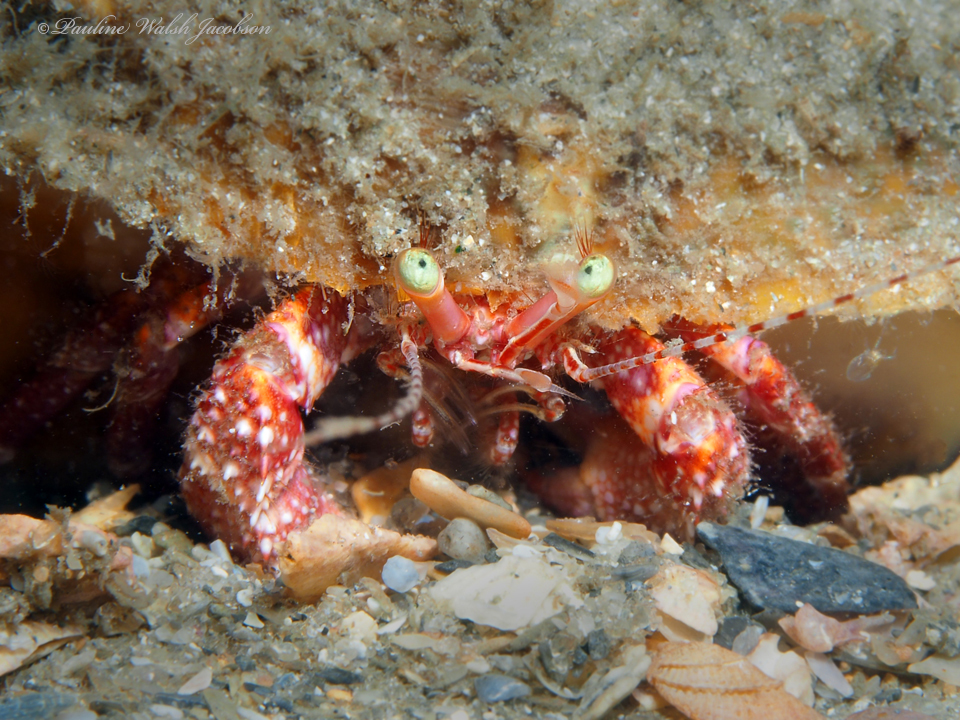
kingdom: Animalia
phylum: Arthropoda
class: Malacostraca
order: Decapoda
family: Diogenidae
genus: Petrochirus
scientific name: Petrochirus diogenes
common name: Giant hermit crab
